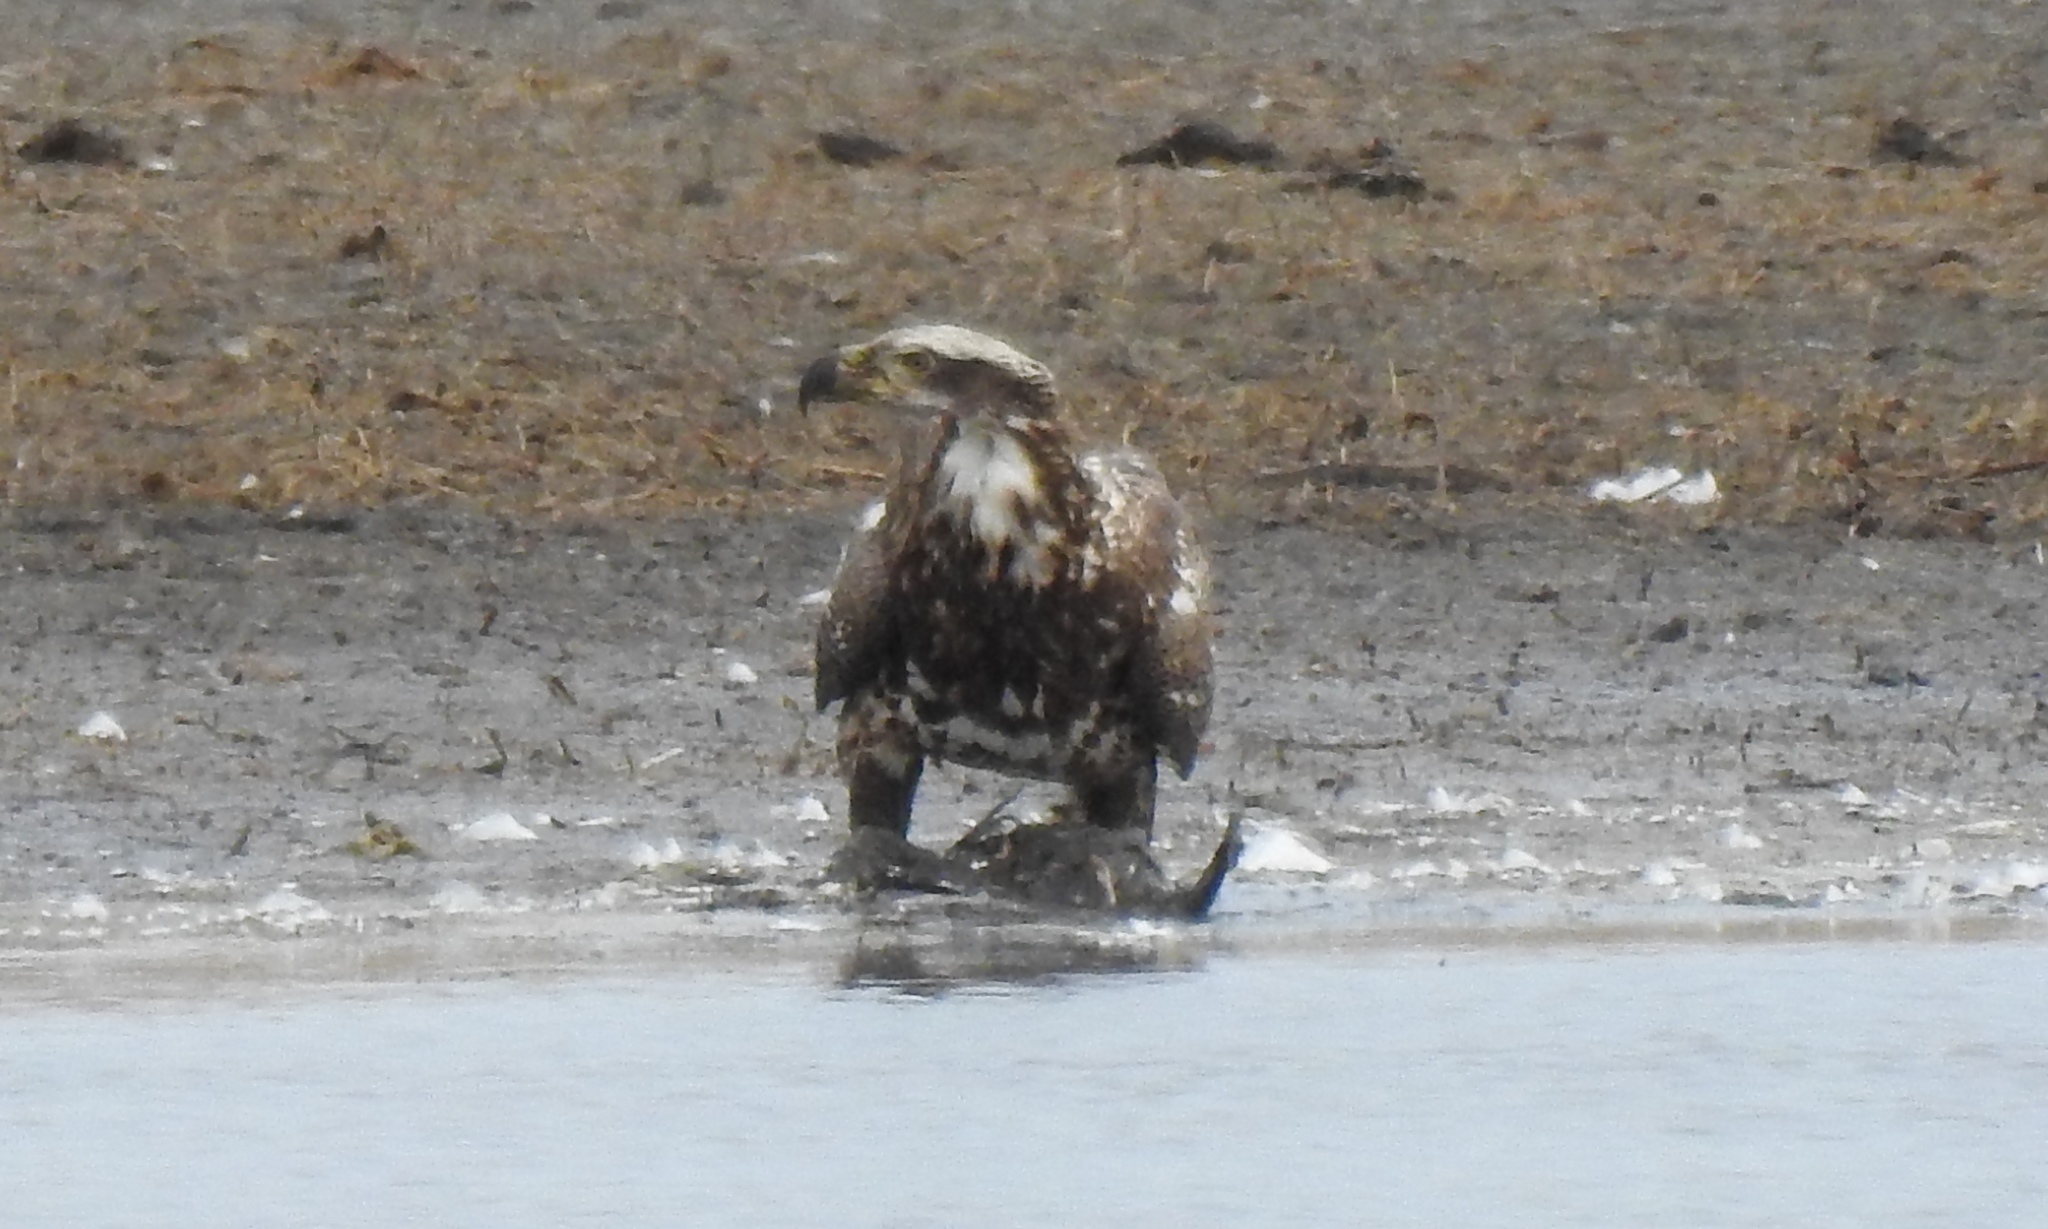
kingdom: Animalia
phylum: Chordata
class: Aves
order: Accipitriformes
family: Accipitridae
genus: Haliaeetus
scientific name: Haliaeetus leucocephalus
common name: Bald eagle
